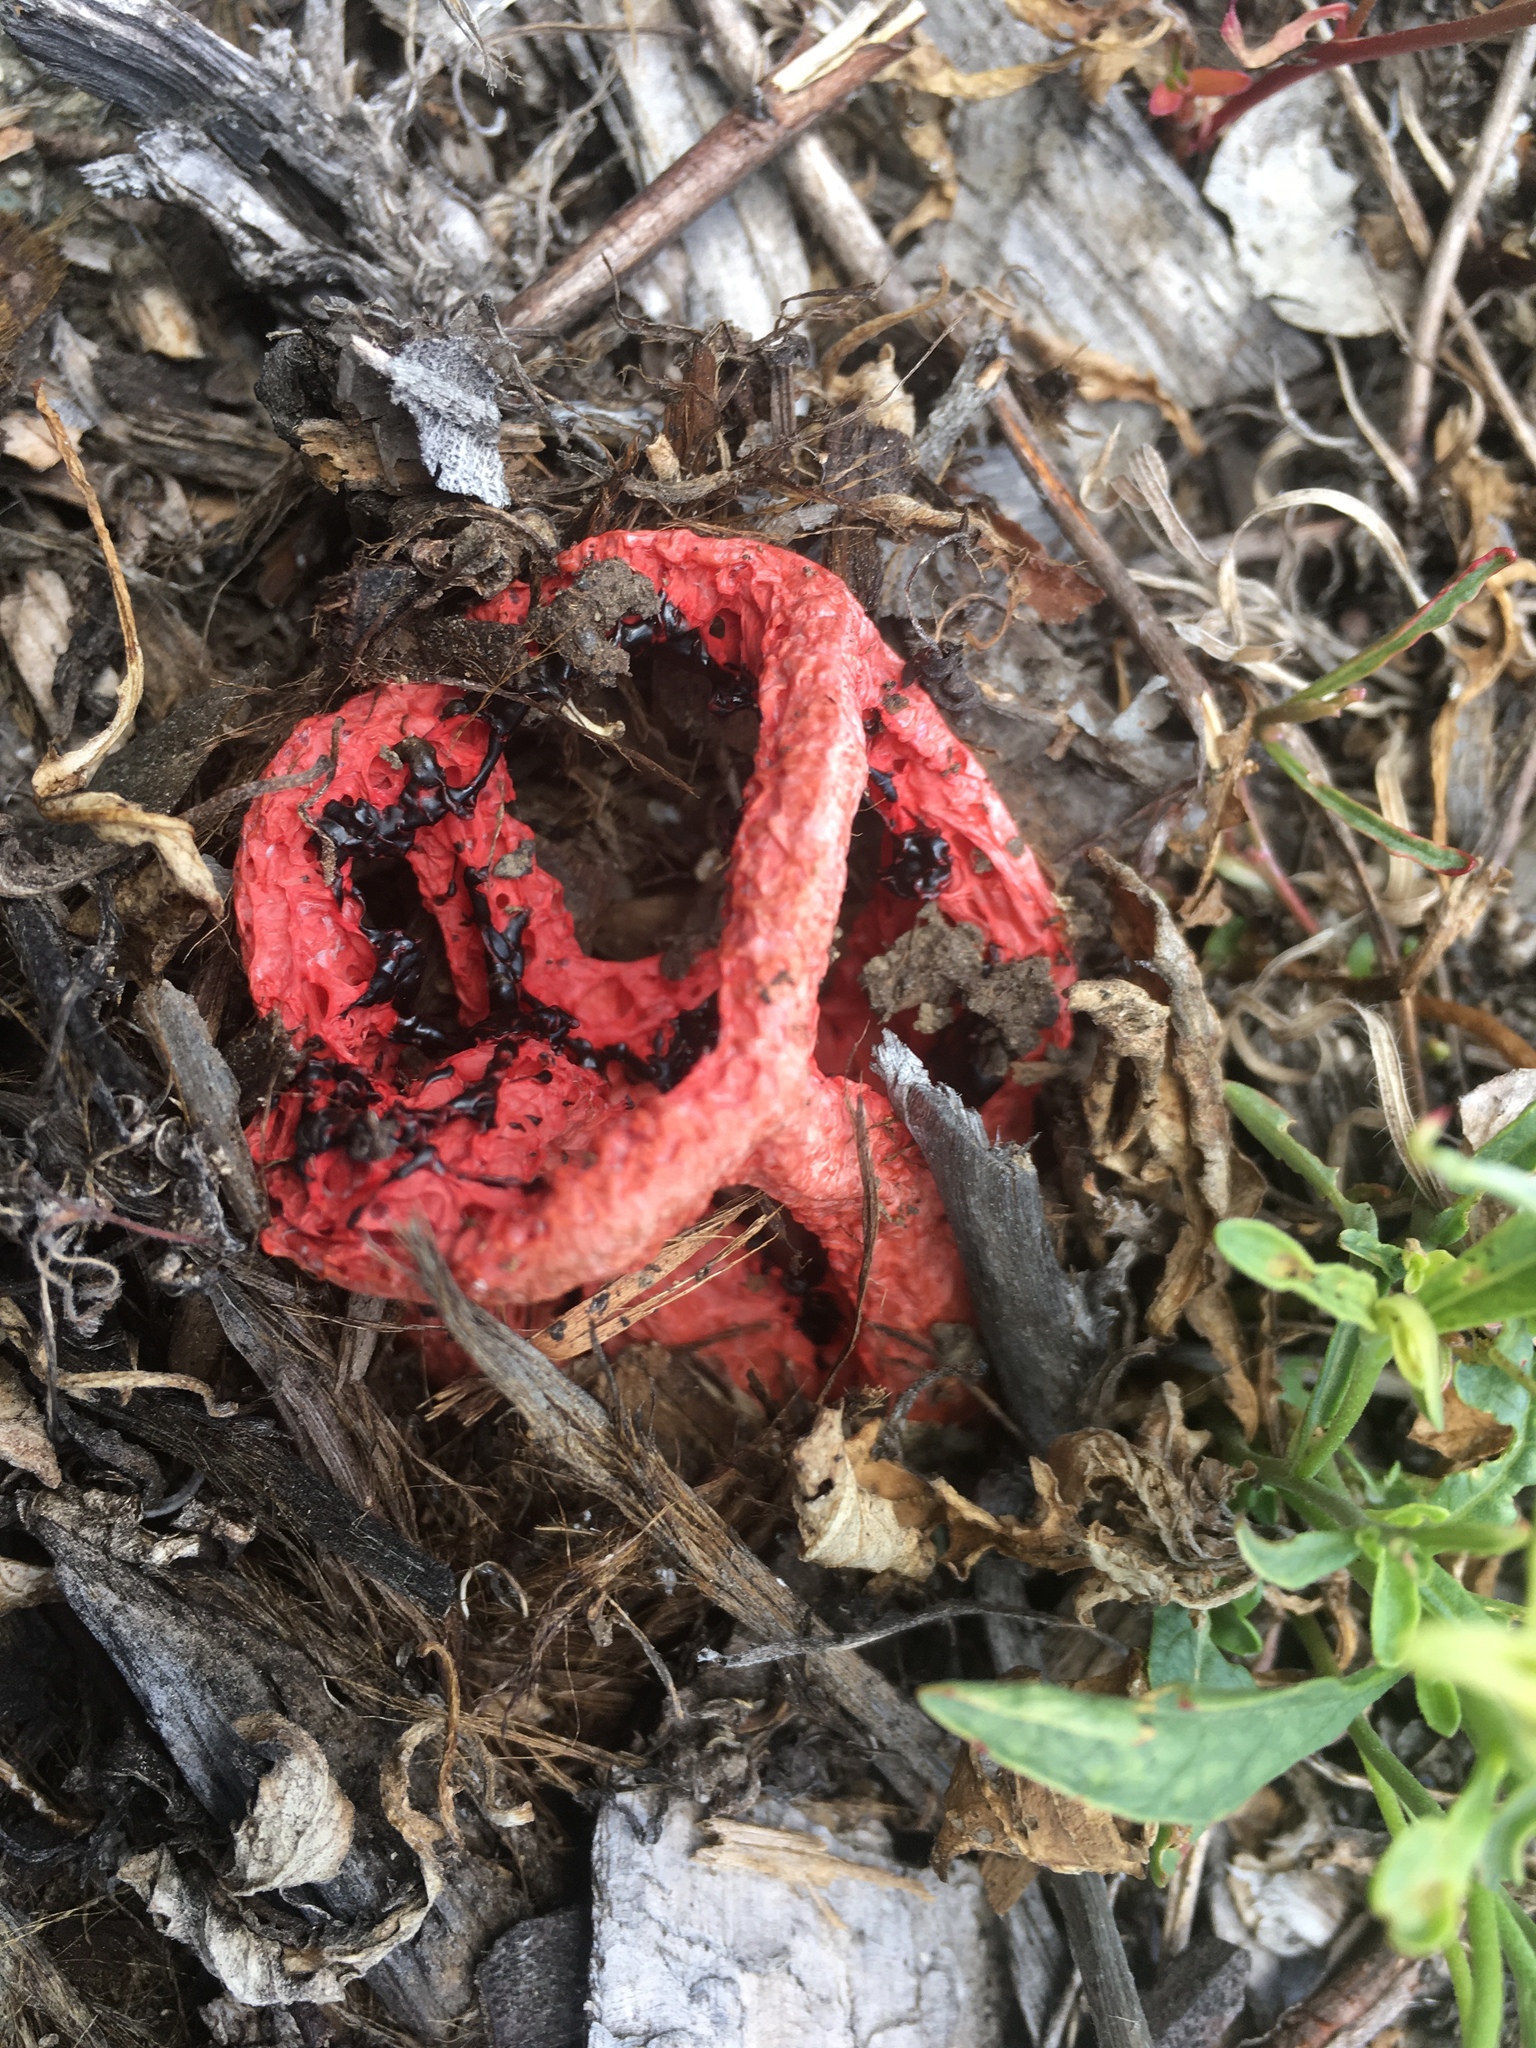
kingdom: Fungi
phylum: Basidiomycota
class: Agaricomycetes
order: Phallales
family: Phallaceae
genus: Clathrus
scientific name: Clathrus ruber
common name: Red cage
